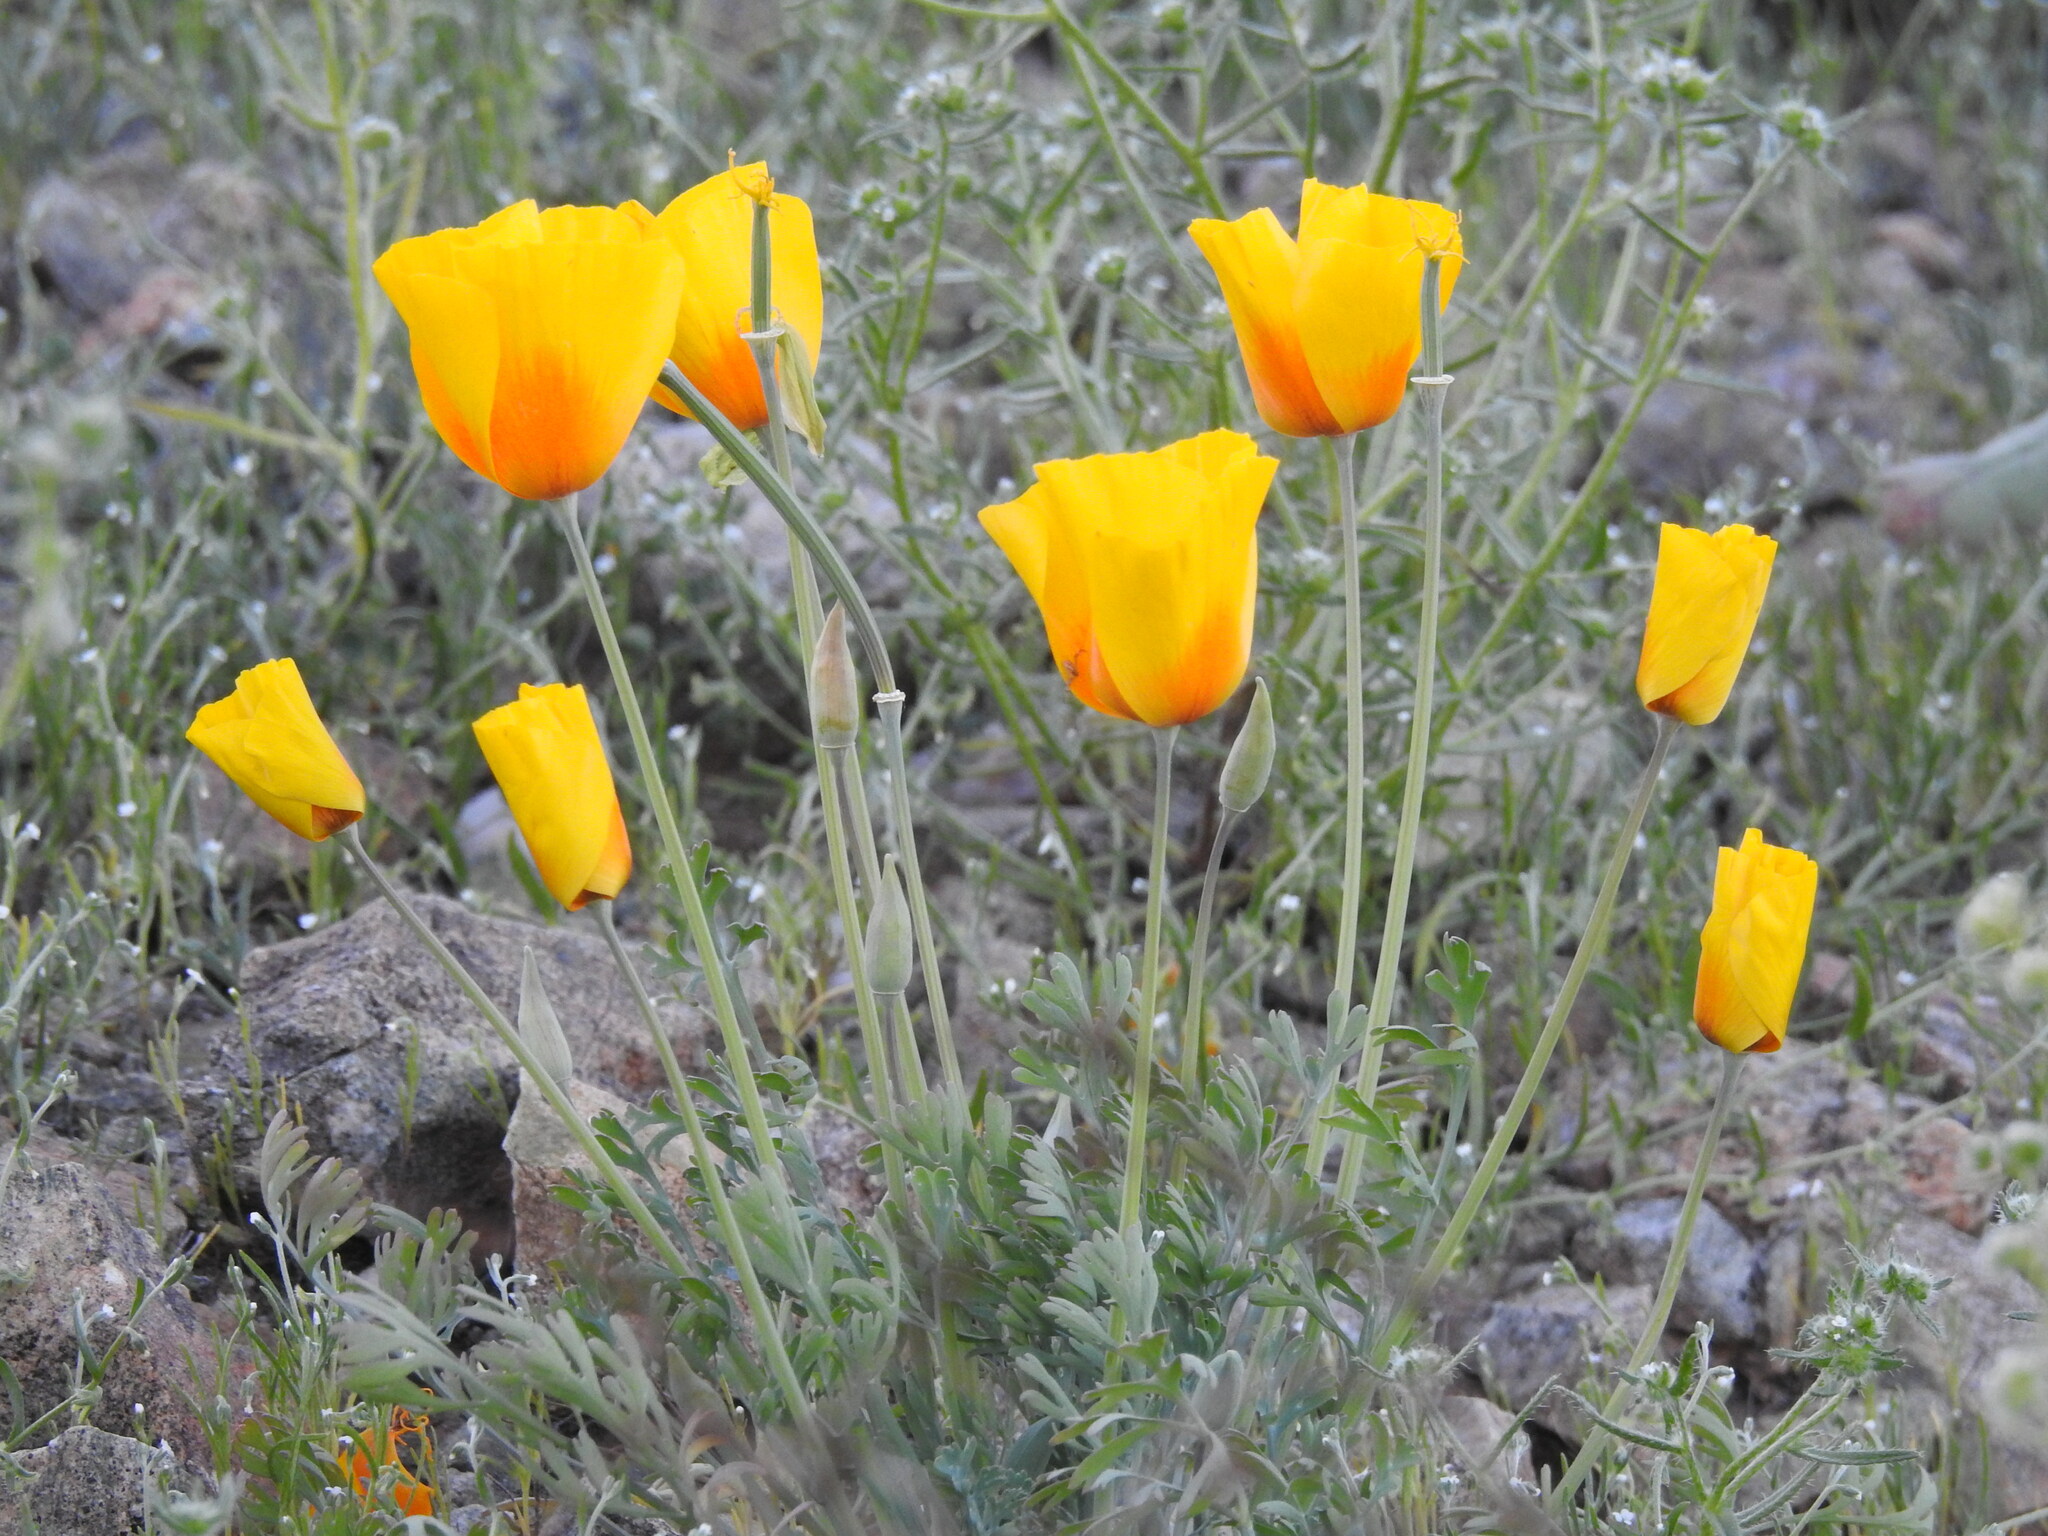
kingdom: Plantae
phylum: Tracheophyta
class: Magnoliopsida
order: Ranunculales
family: Papaveraceae
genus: Eschscholzia
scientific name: Eschscholzia californica
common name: California poppy
